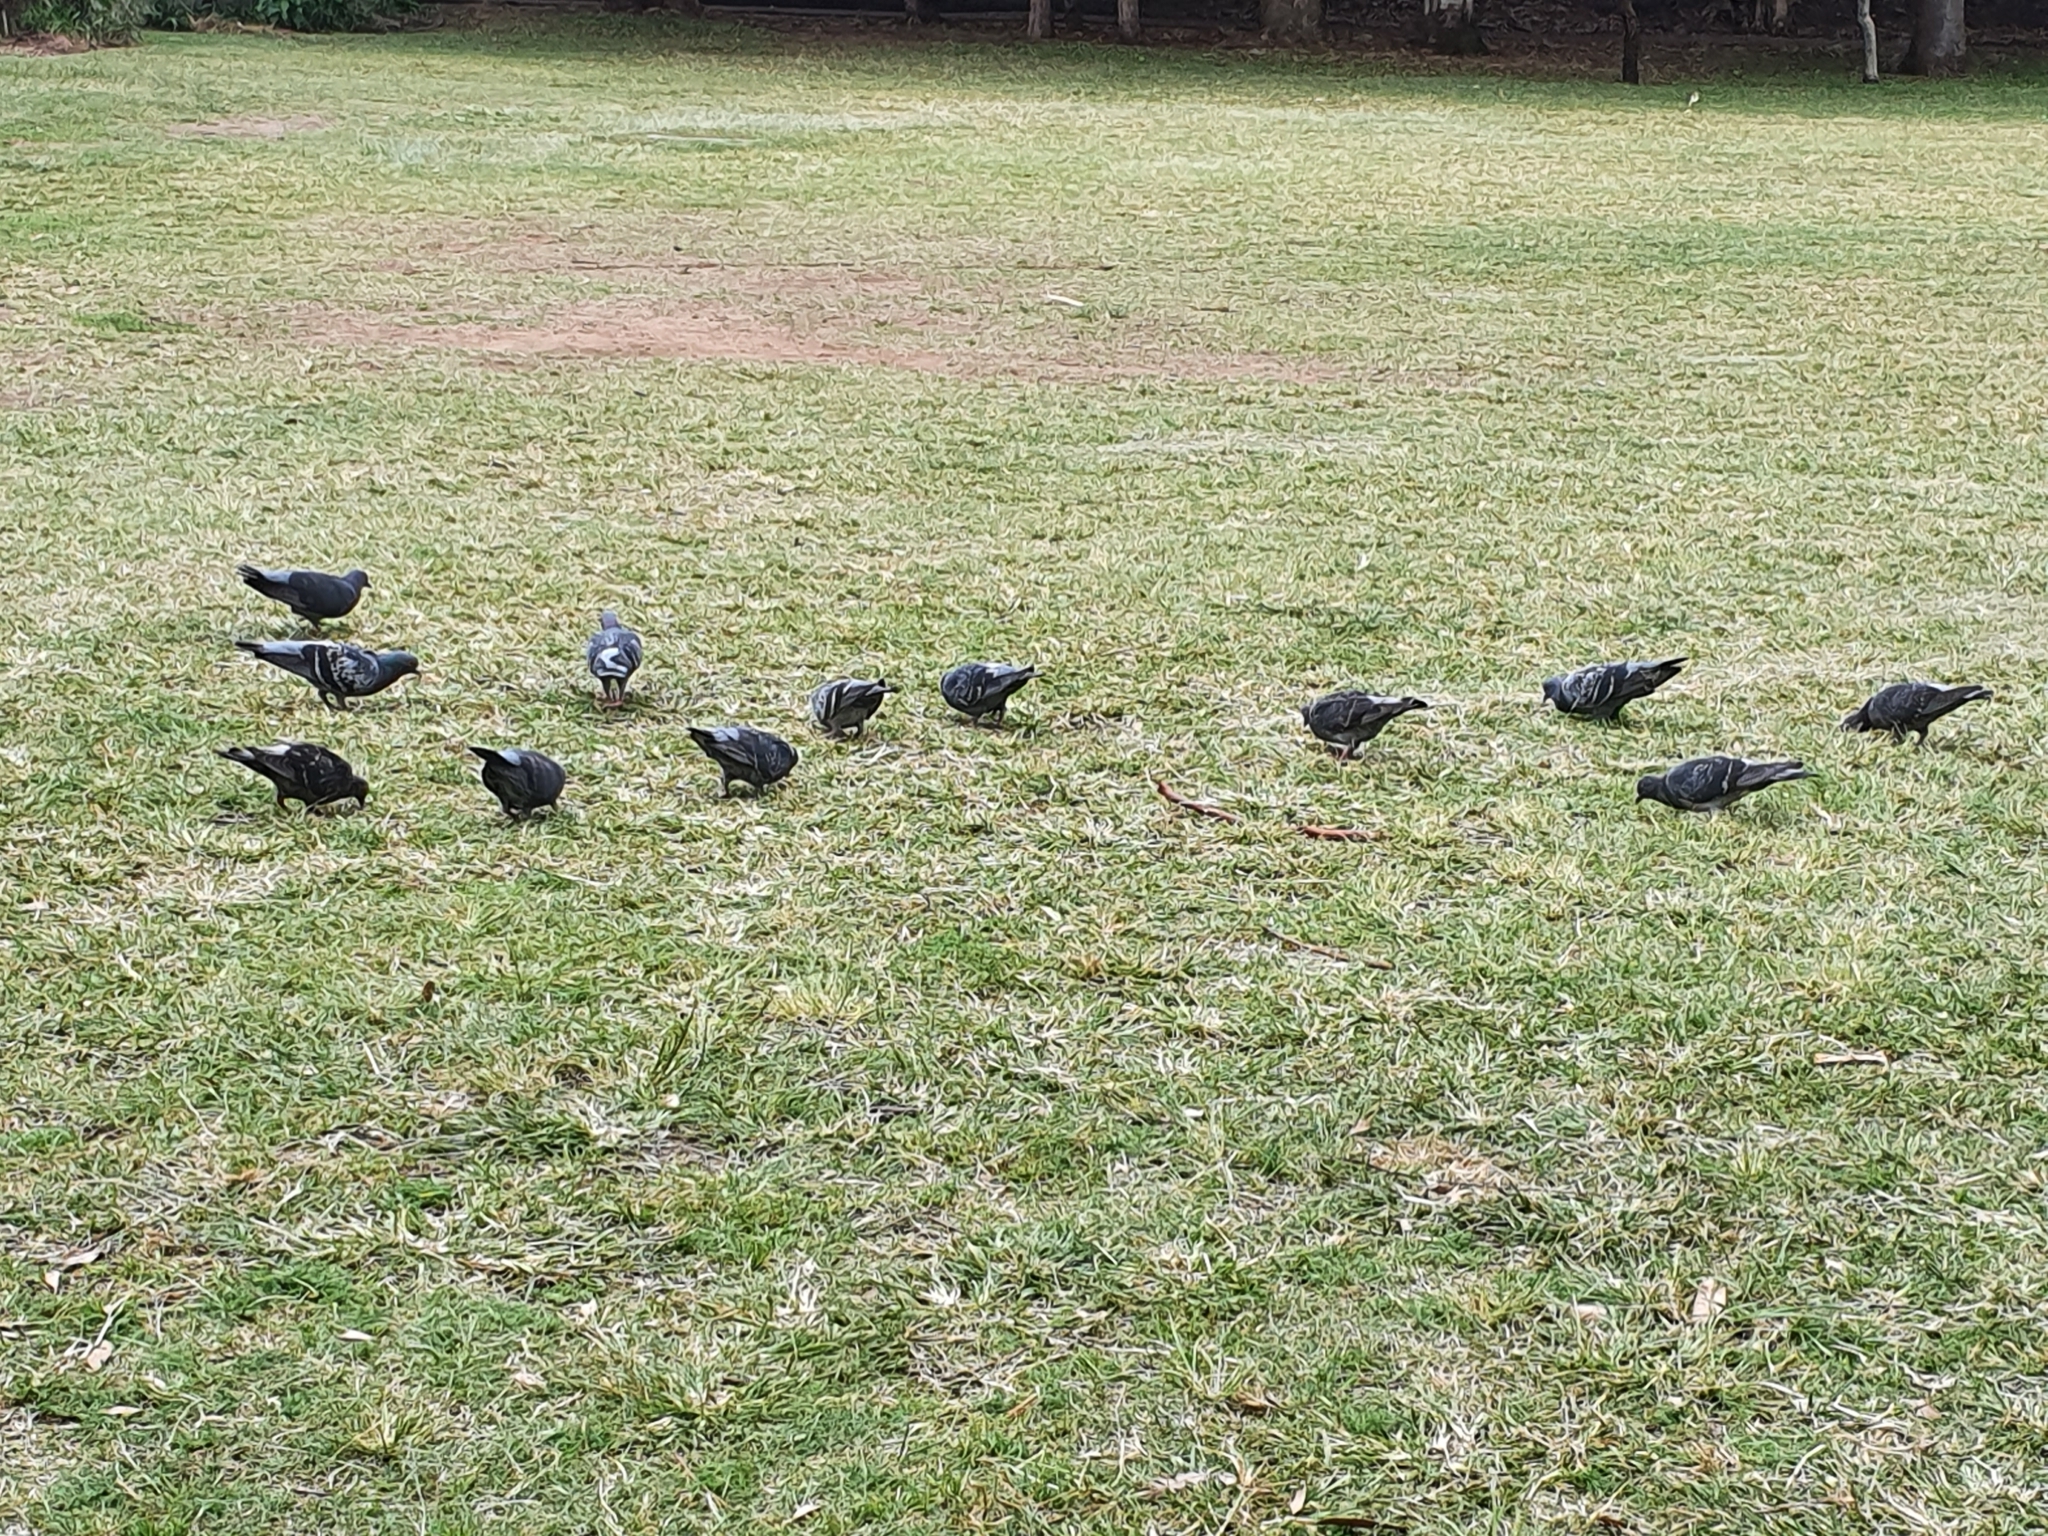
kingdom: Animalia
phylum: Chordata
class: Aves
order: Columbiformes
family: Columbidae
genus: Columba
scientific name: Columba livia
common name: Rock pigeon
